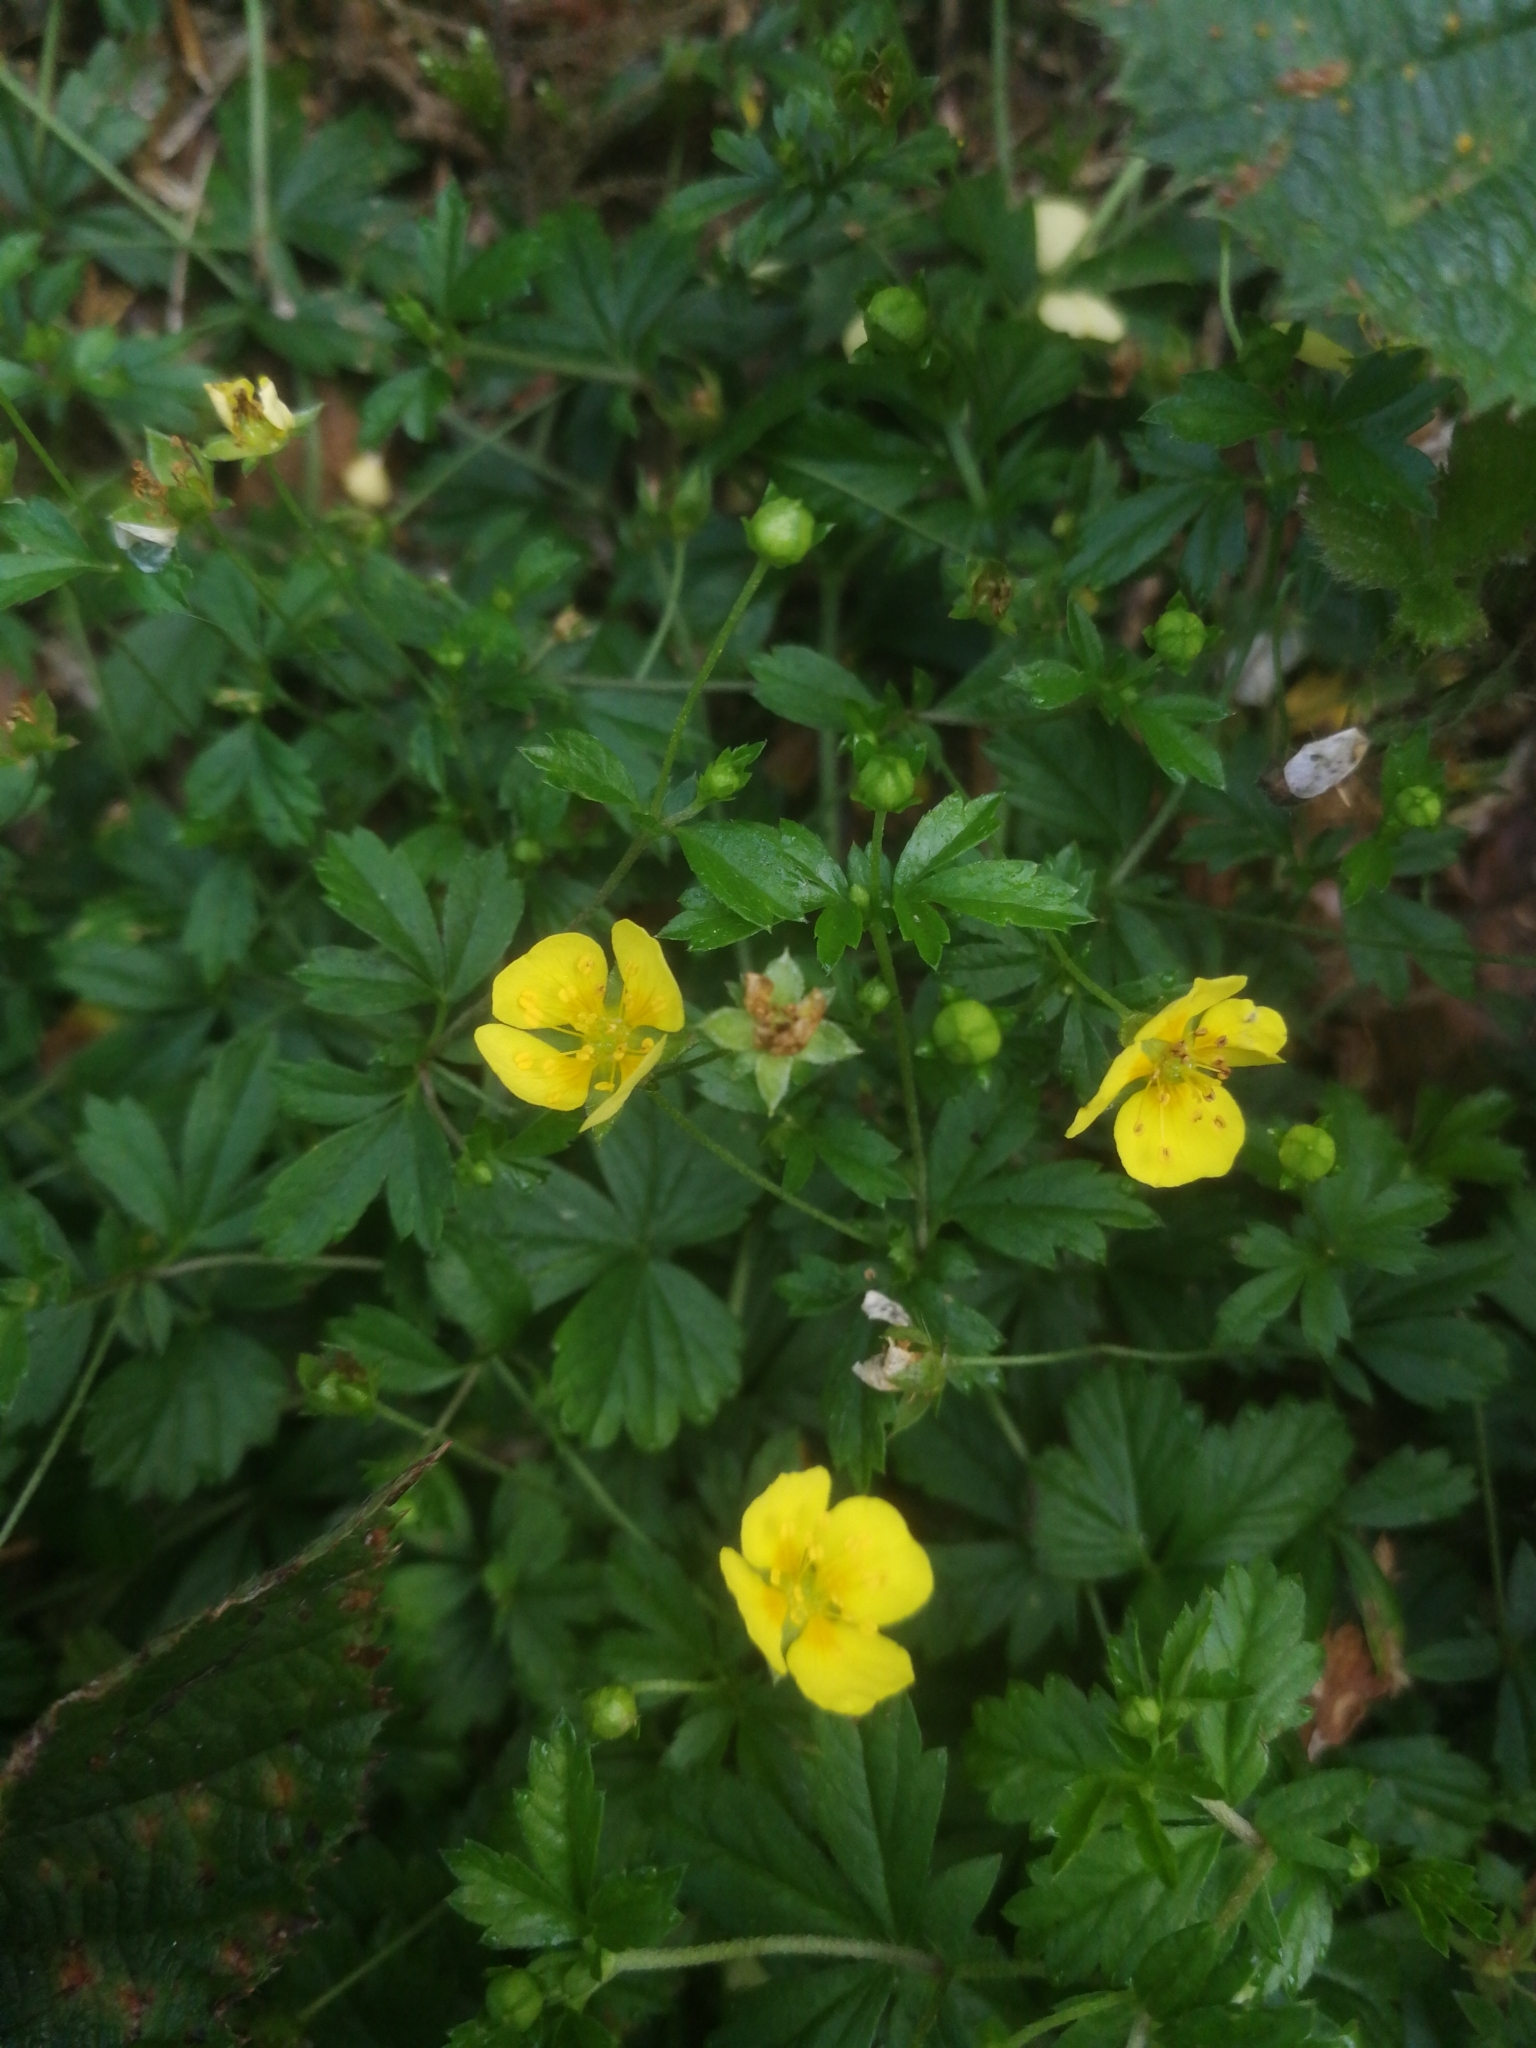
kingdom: Plantae
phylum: Tracheophyta
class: Magnoliopsida
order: Rosales
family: Rosaceae
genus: Potentilla
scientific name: Potentilla erecta
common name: Tormentil
